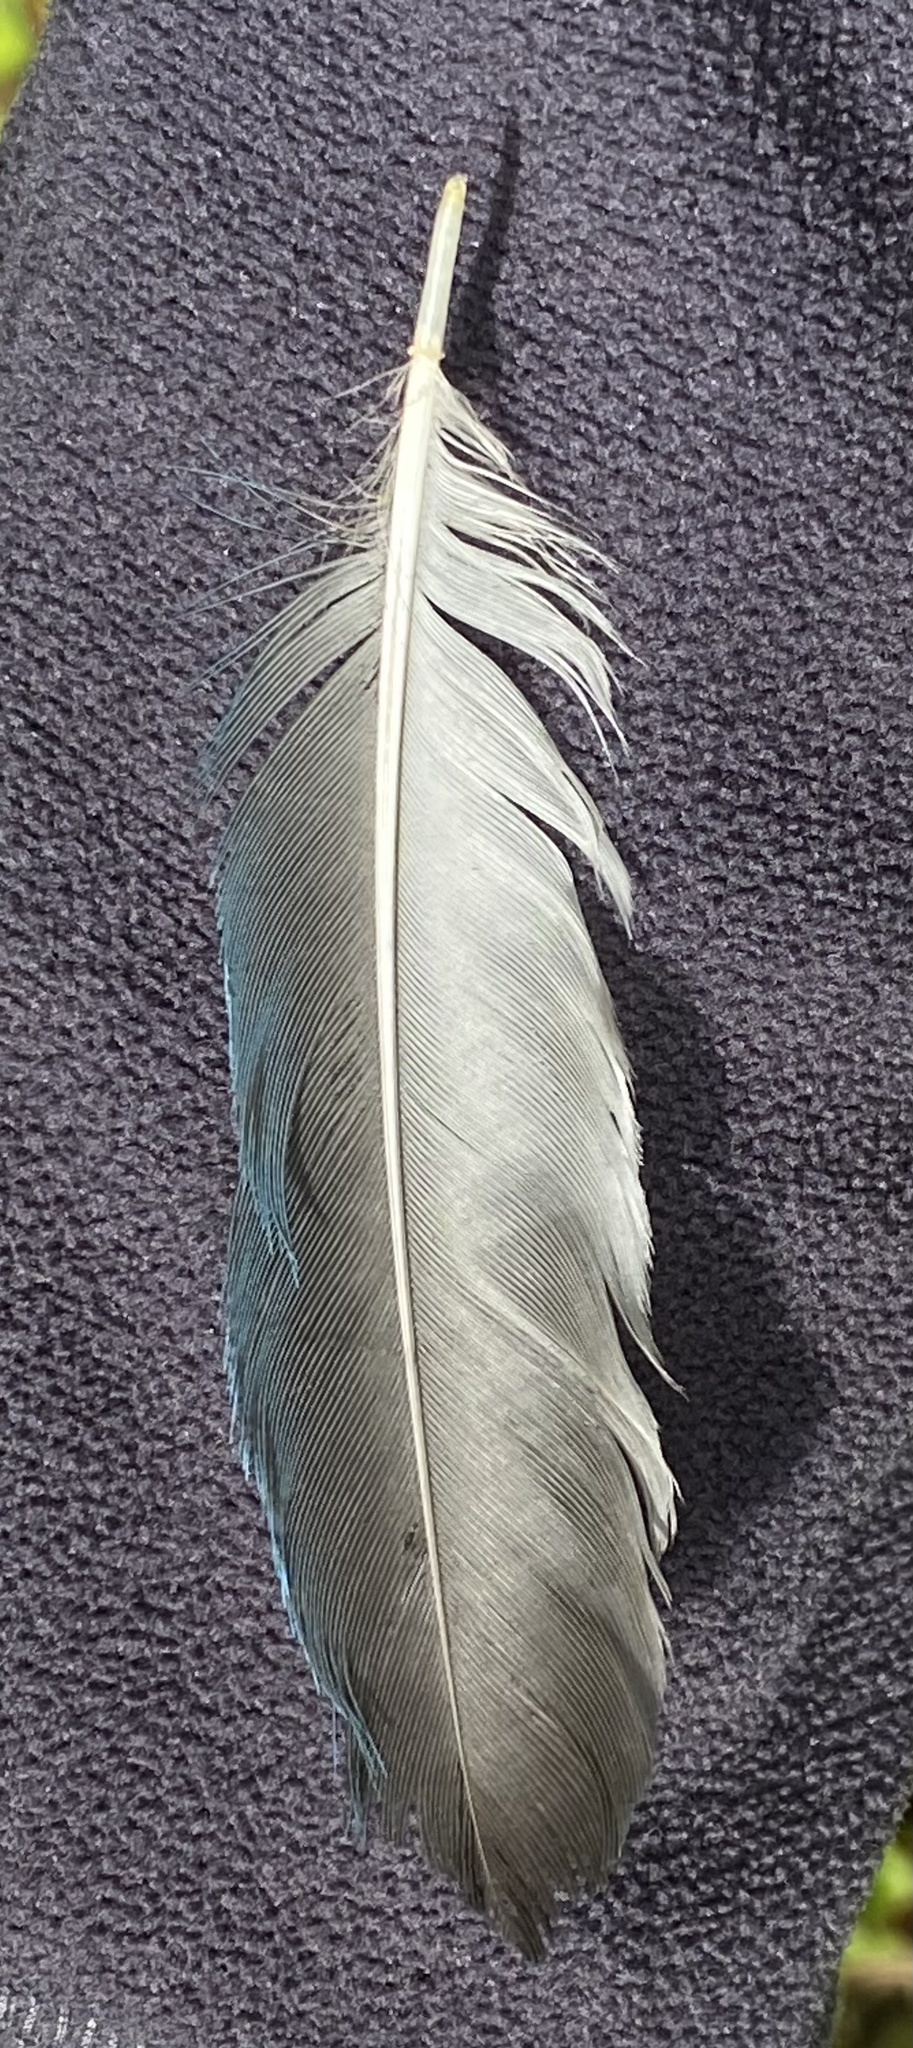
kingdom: Animalia
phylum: Chordata
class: Aves
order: Passeriformes
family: Corvidae
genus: Cyanocorax
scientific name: Cyanocorax melanocyaneus
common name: Bushy-crested jay
